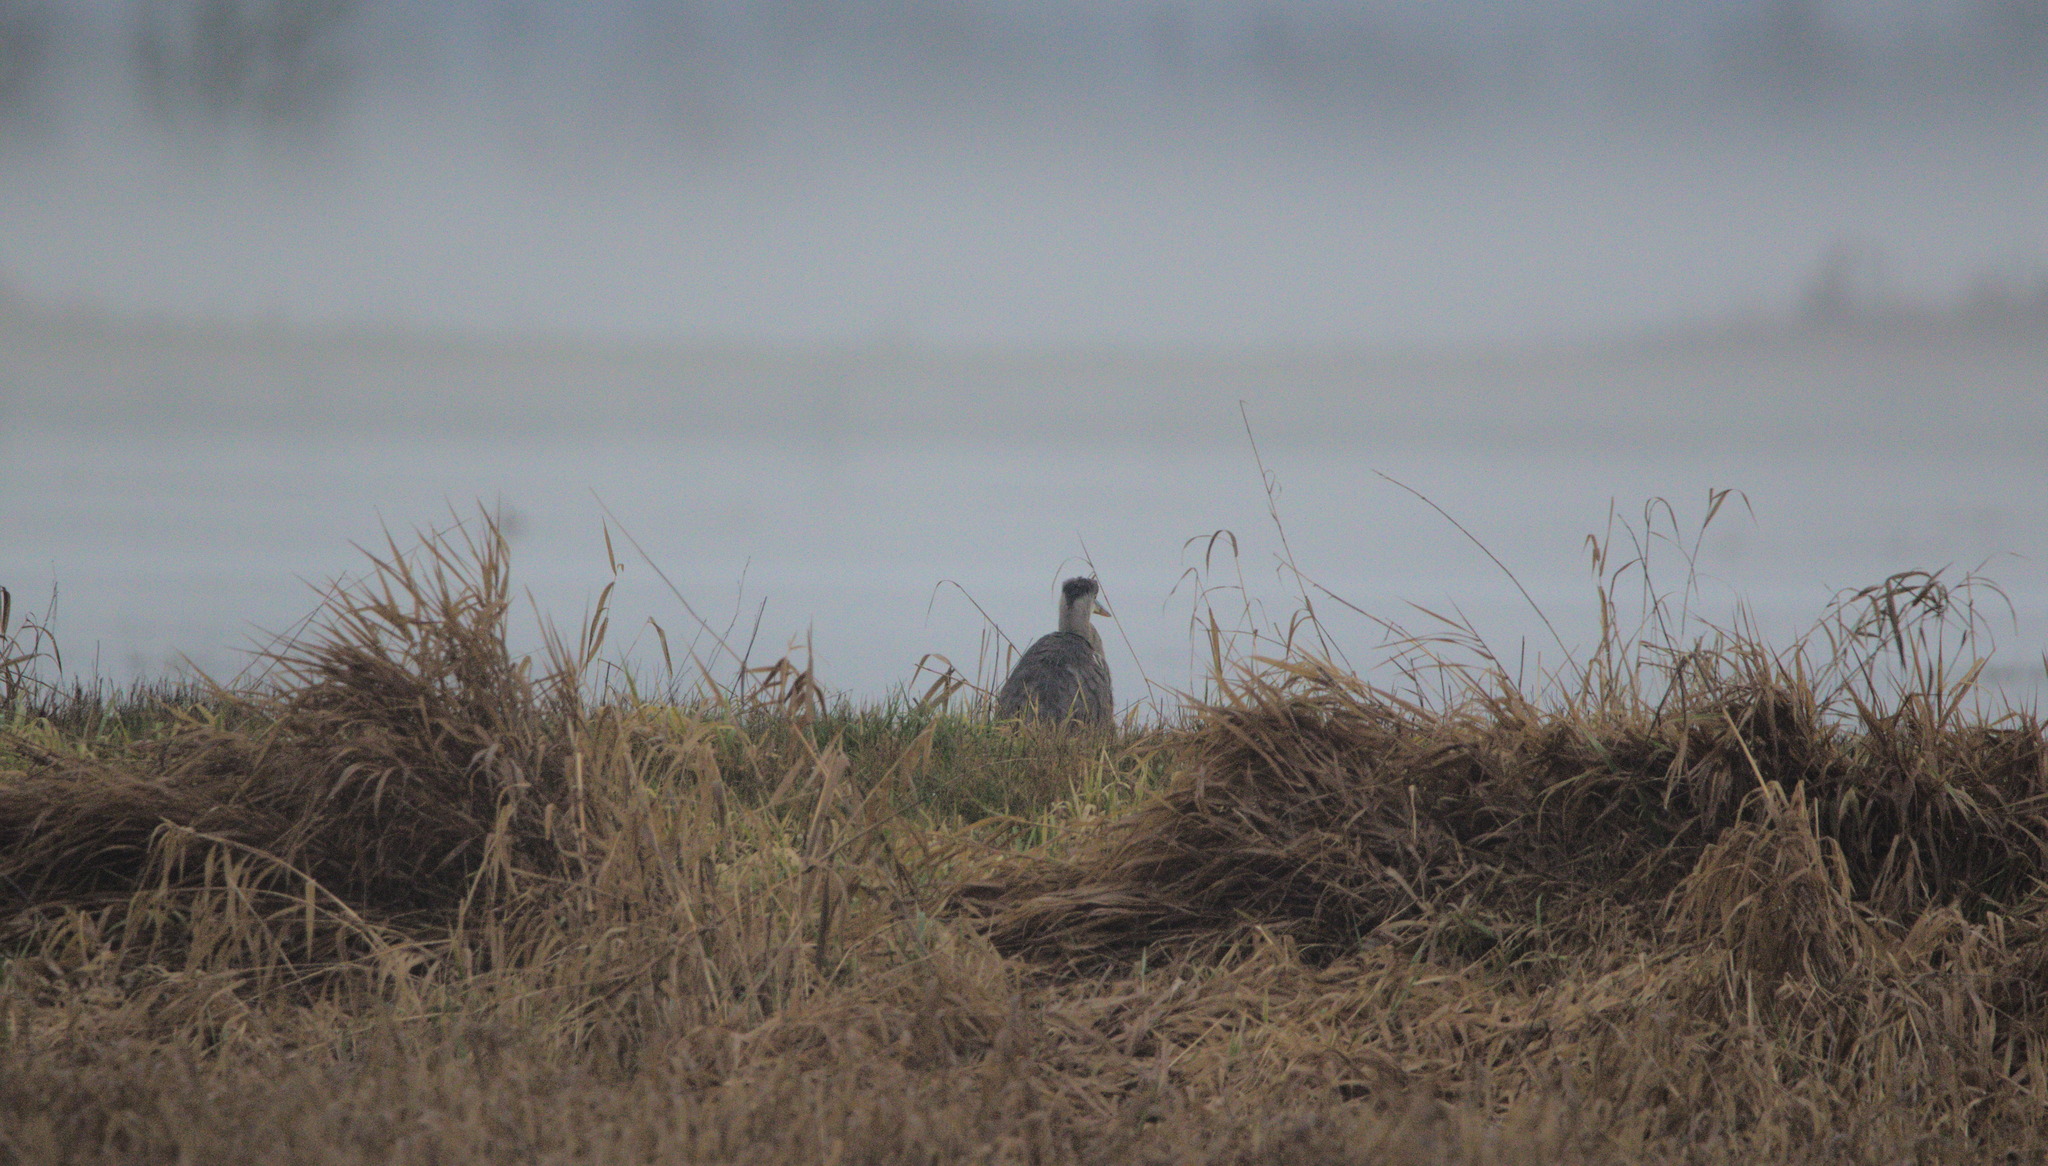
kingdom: Animalia
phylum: Chordata
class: Aves
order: Pelecaniformes
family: Ardeidae
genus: Ardea
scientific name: Ardea herodias
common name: Great blue heron
